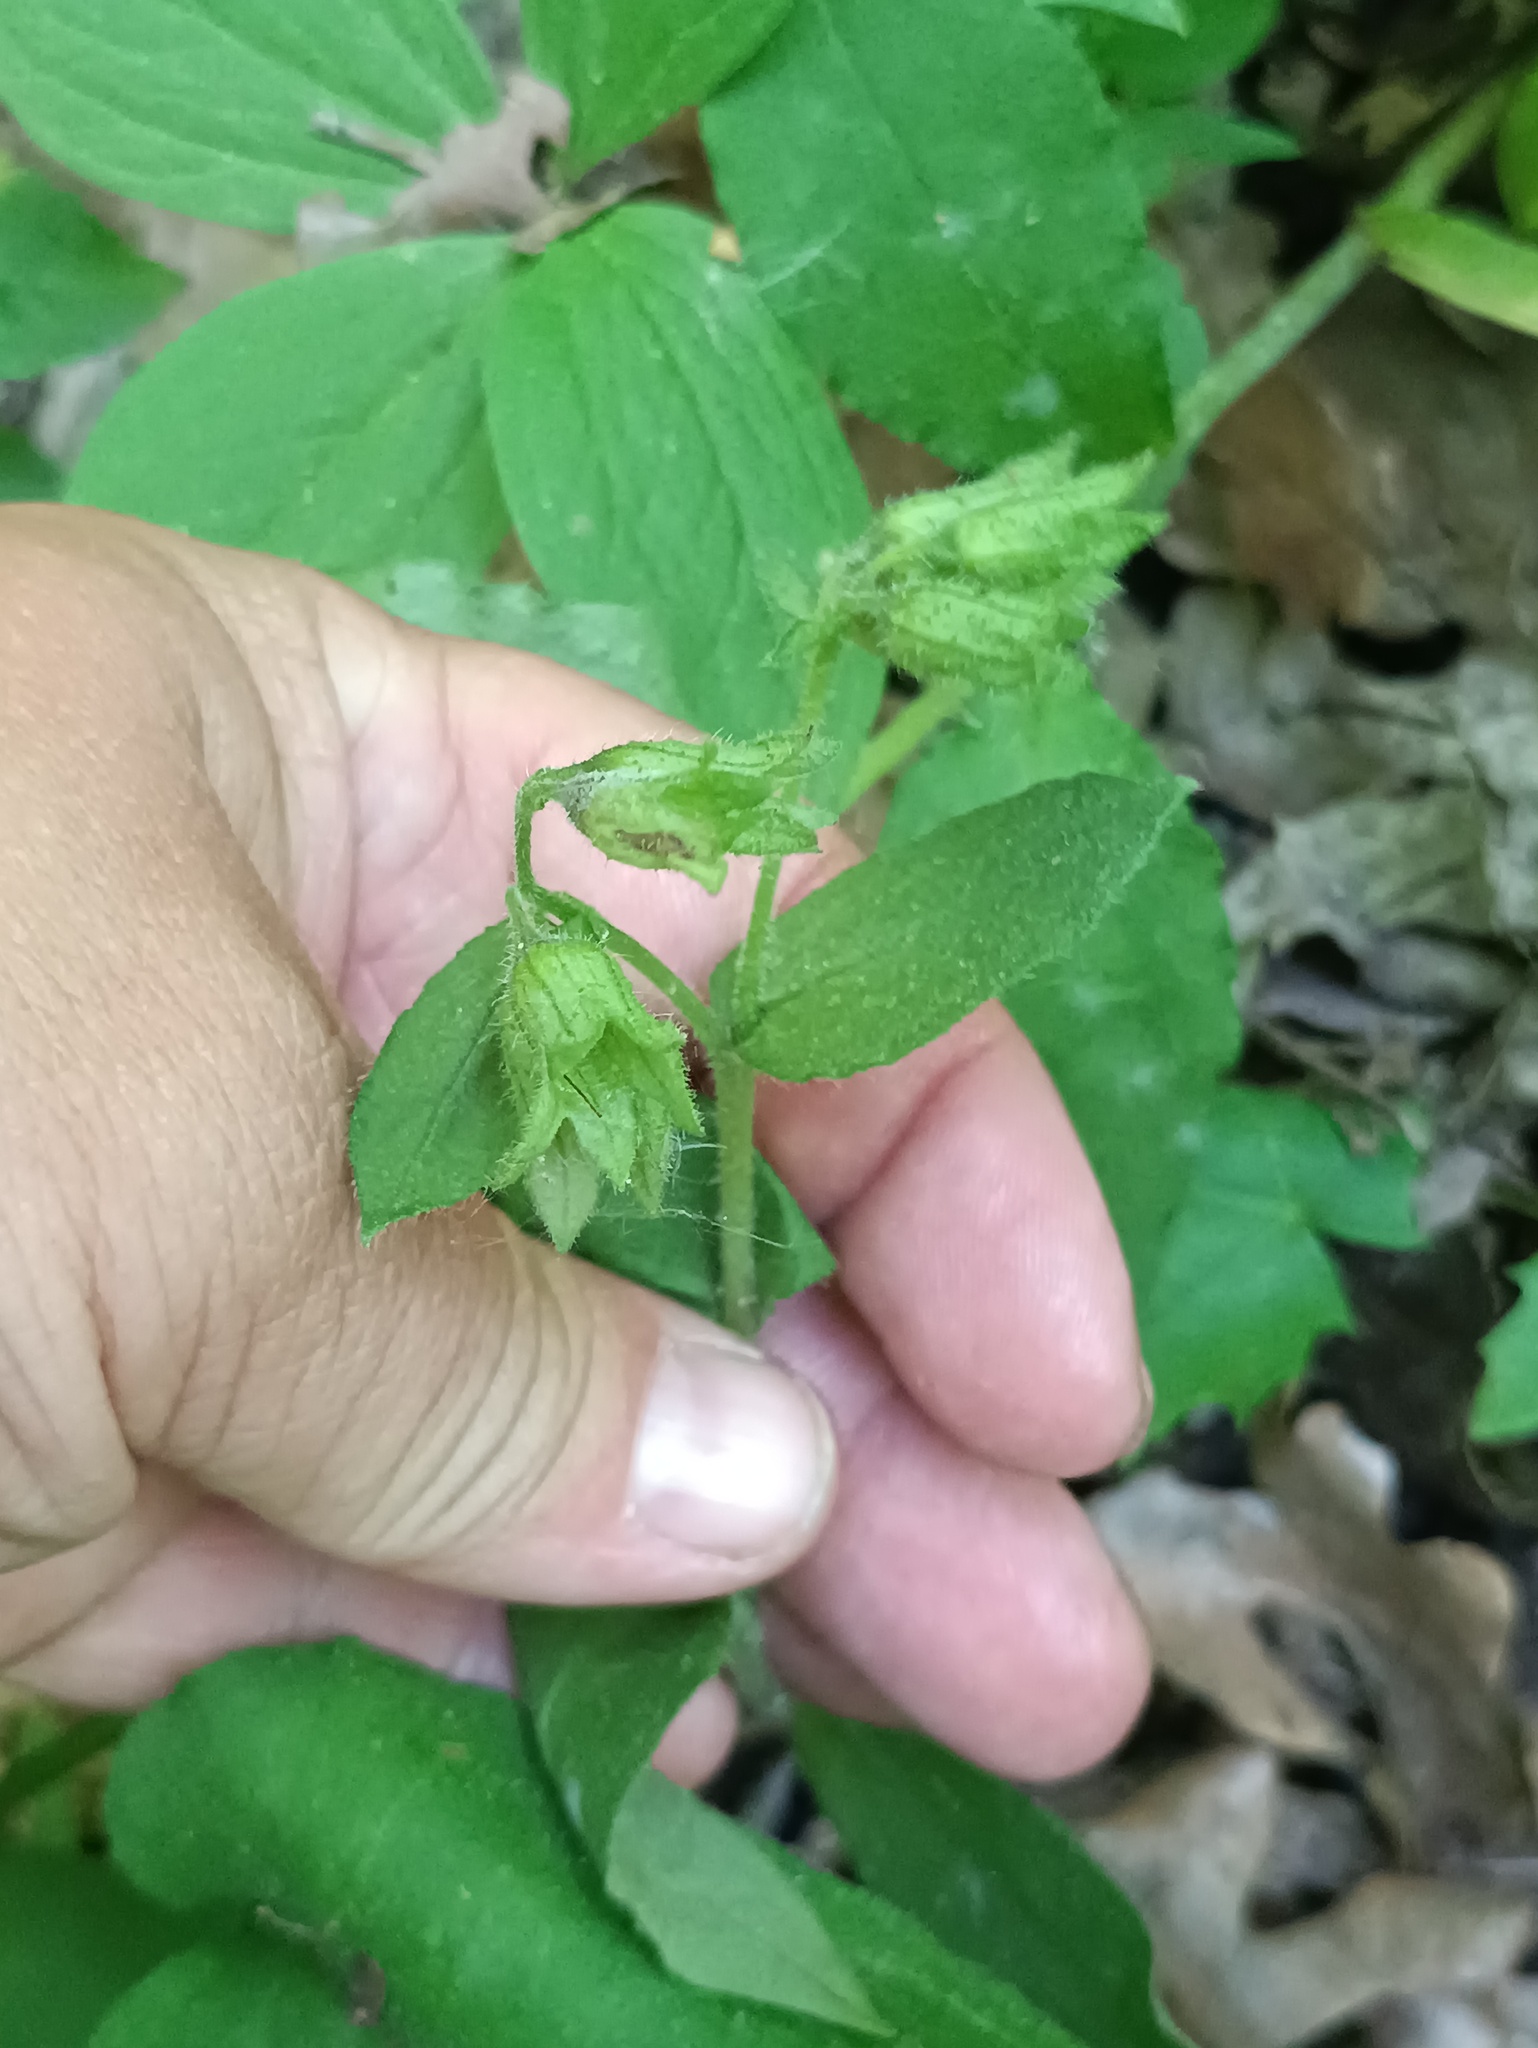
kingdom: Plantae
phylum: Tracheophyta
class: Magnoliopsida
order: Boraginales
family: Boraginaceae
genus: Pulmonaria
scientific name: Pulmonaria obscura
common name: Suffolk lungwort
